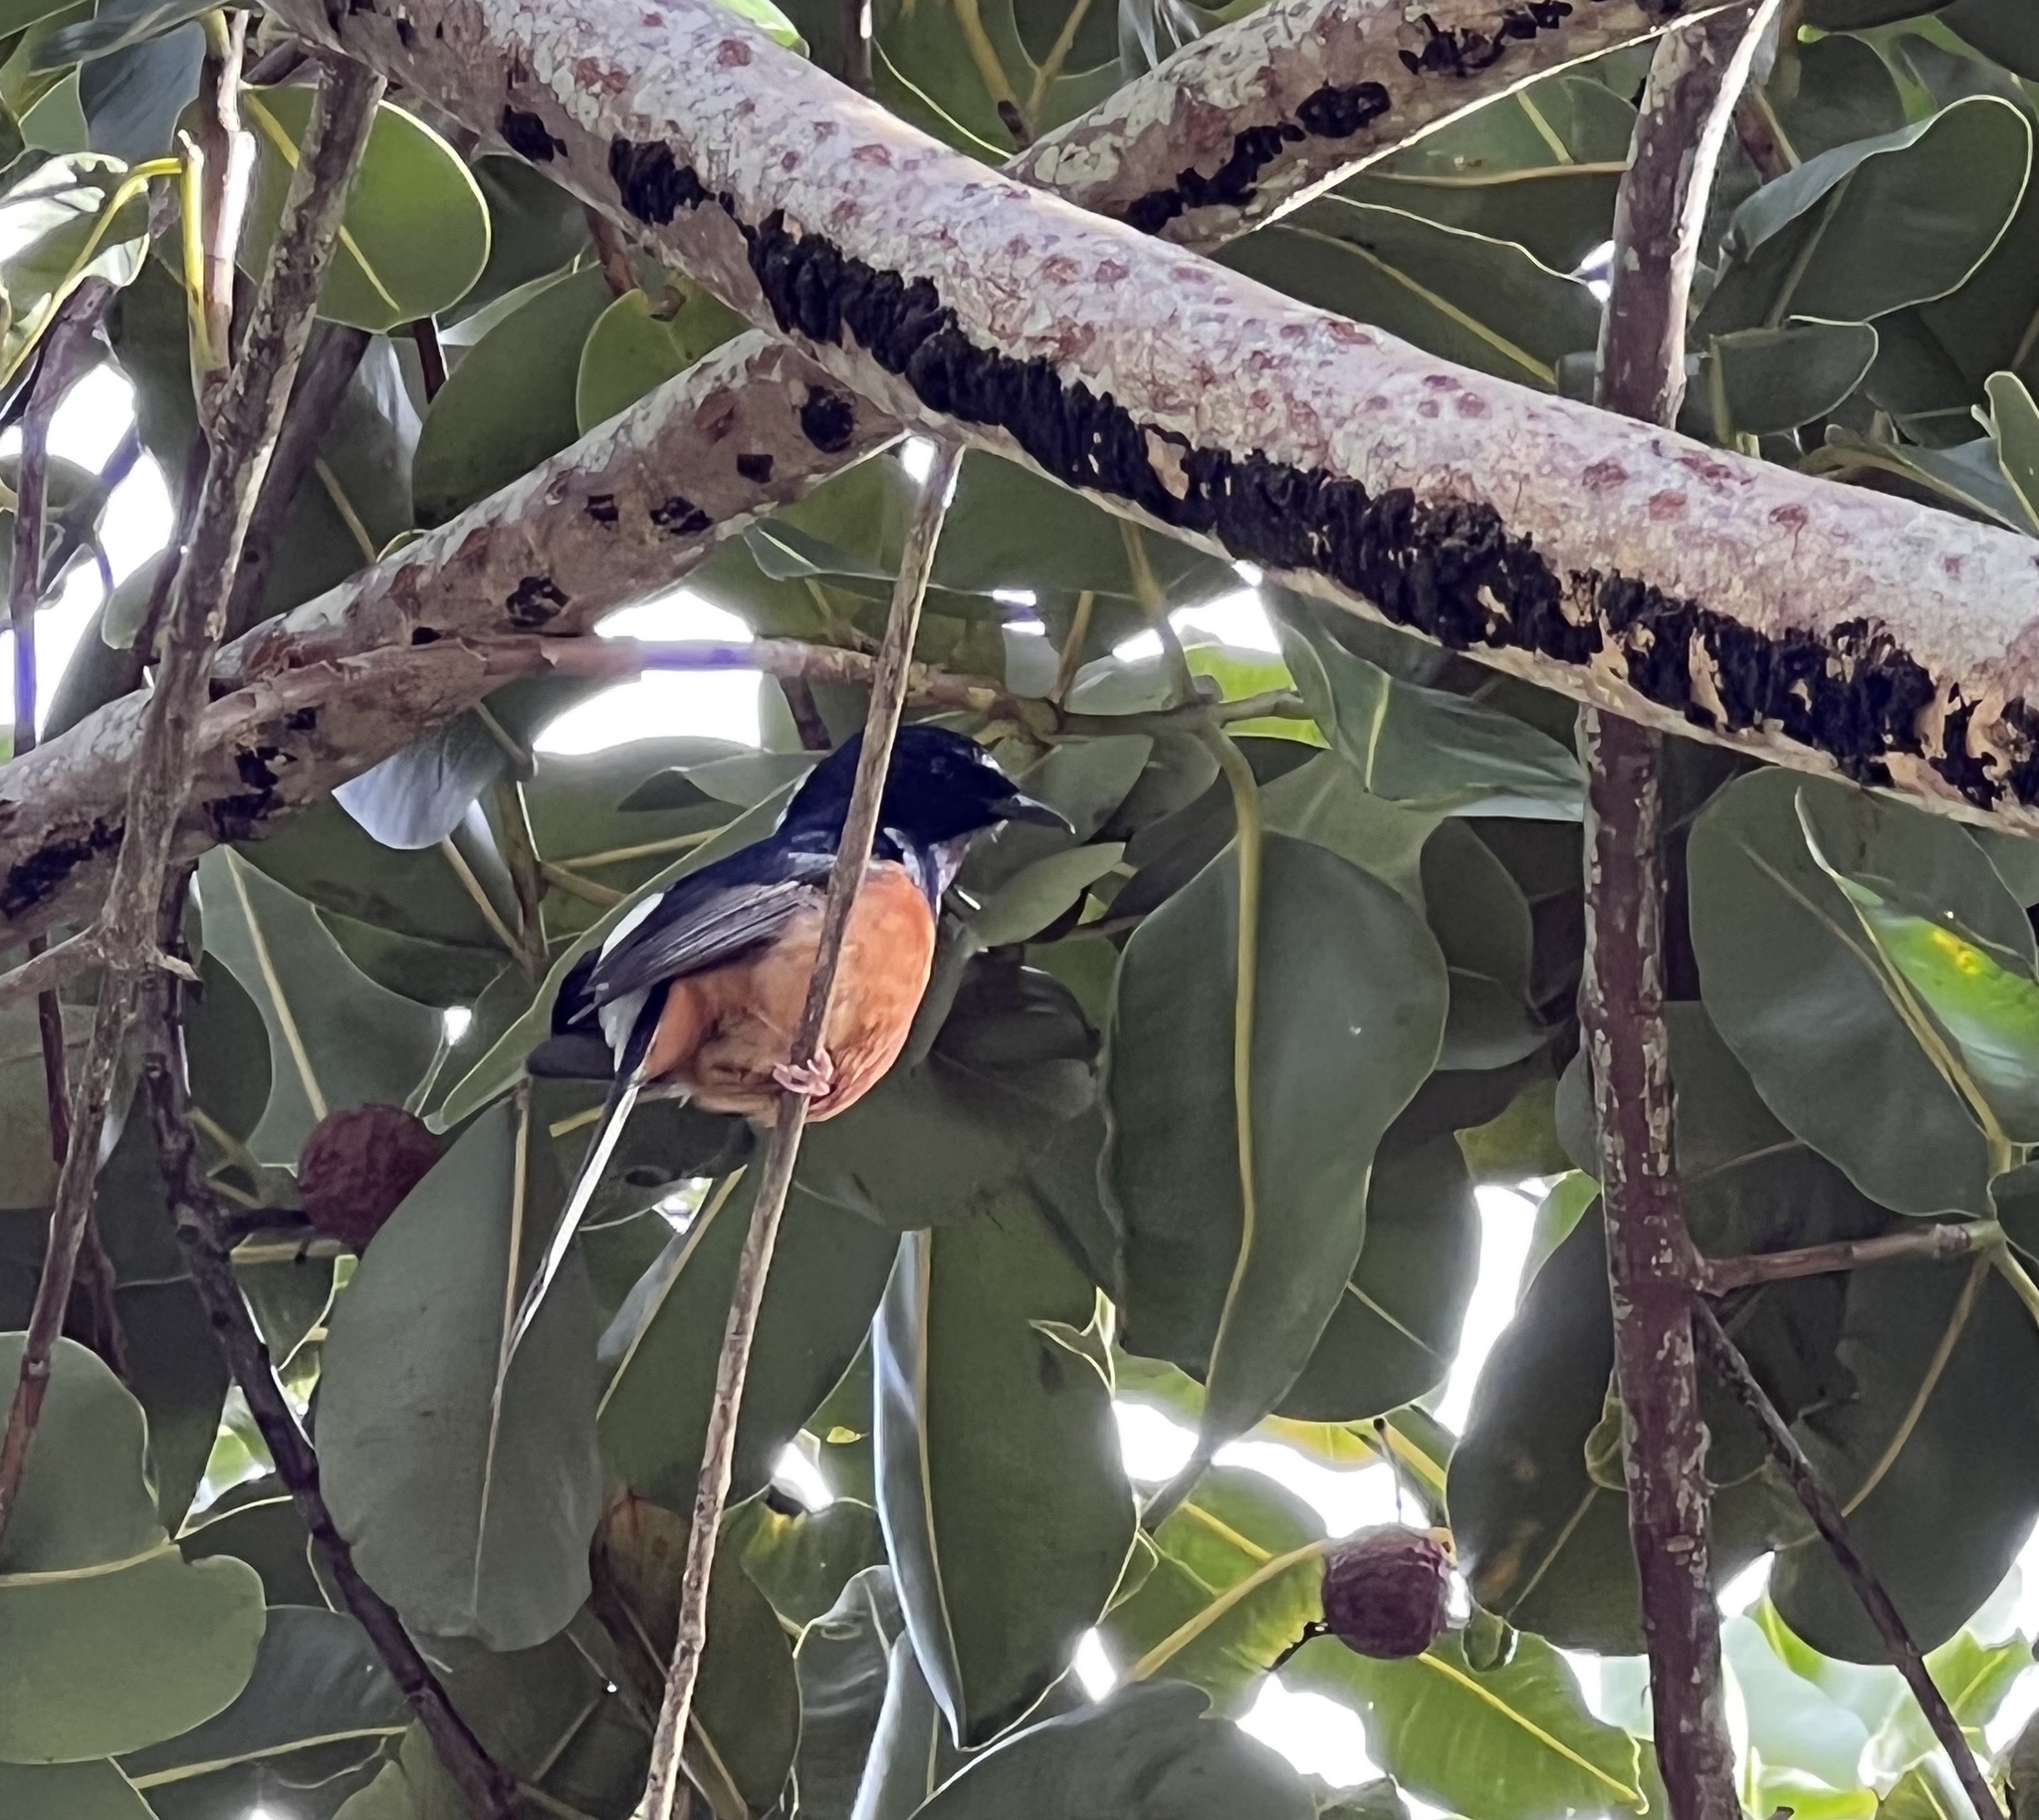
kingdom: Animalia
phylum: Chordata
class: Aves
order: Passeriformes
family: Muscicapidae
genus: Copsychus
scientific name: Copsychus malabaricus
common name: White-rumped shama
